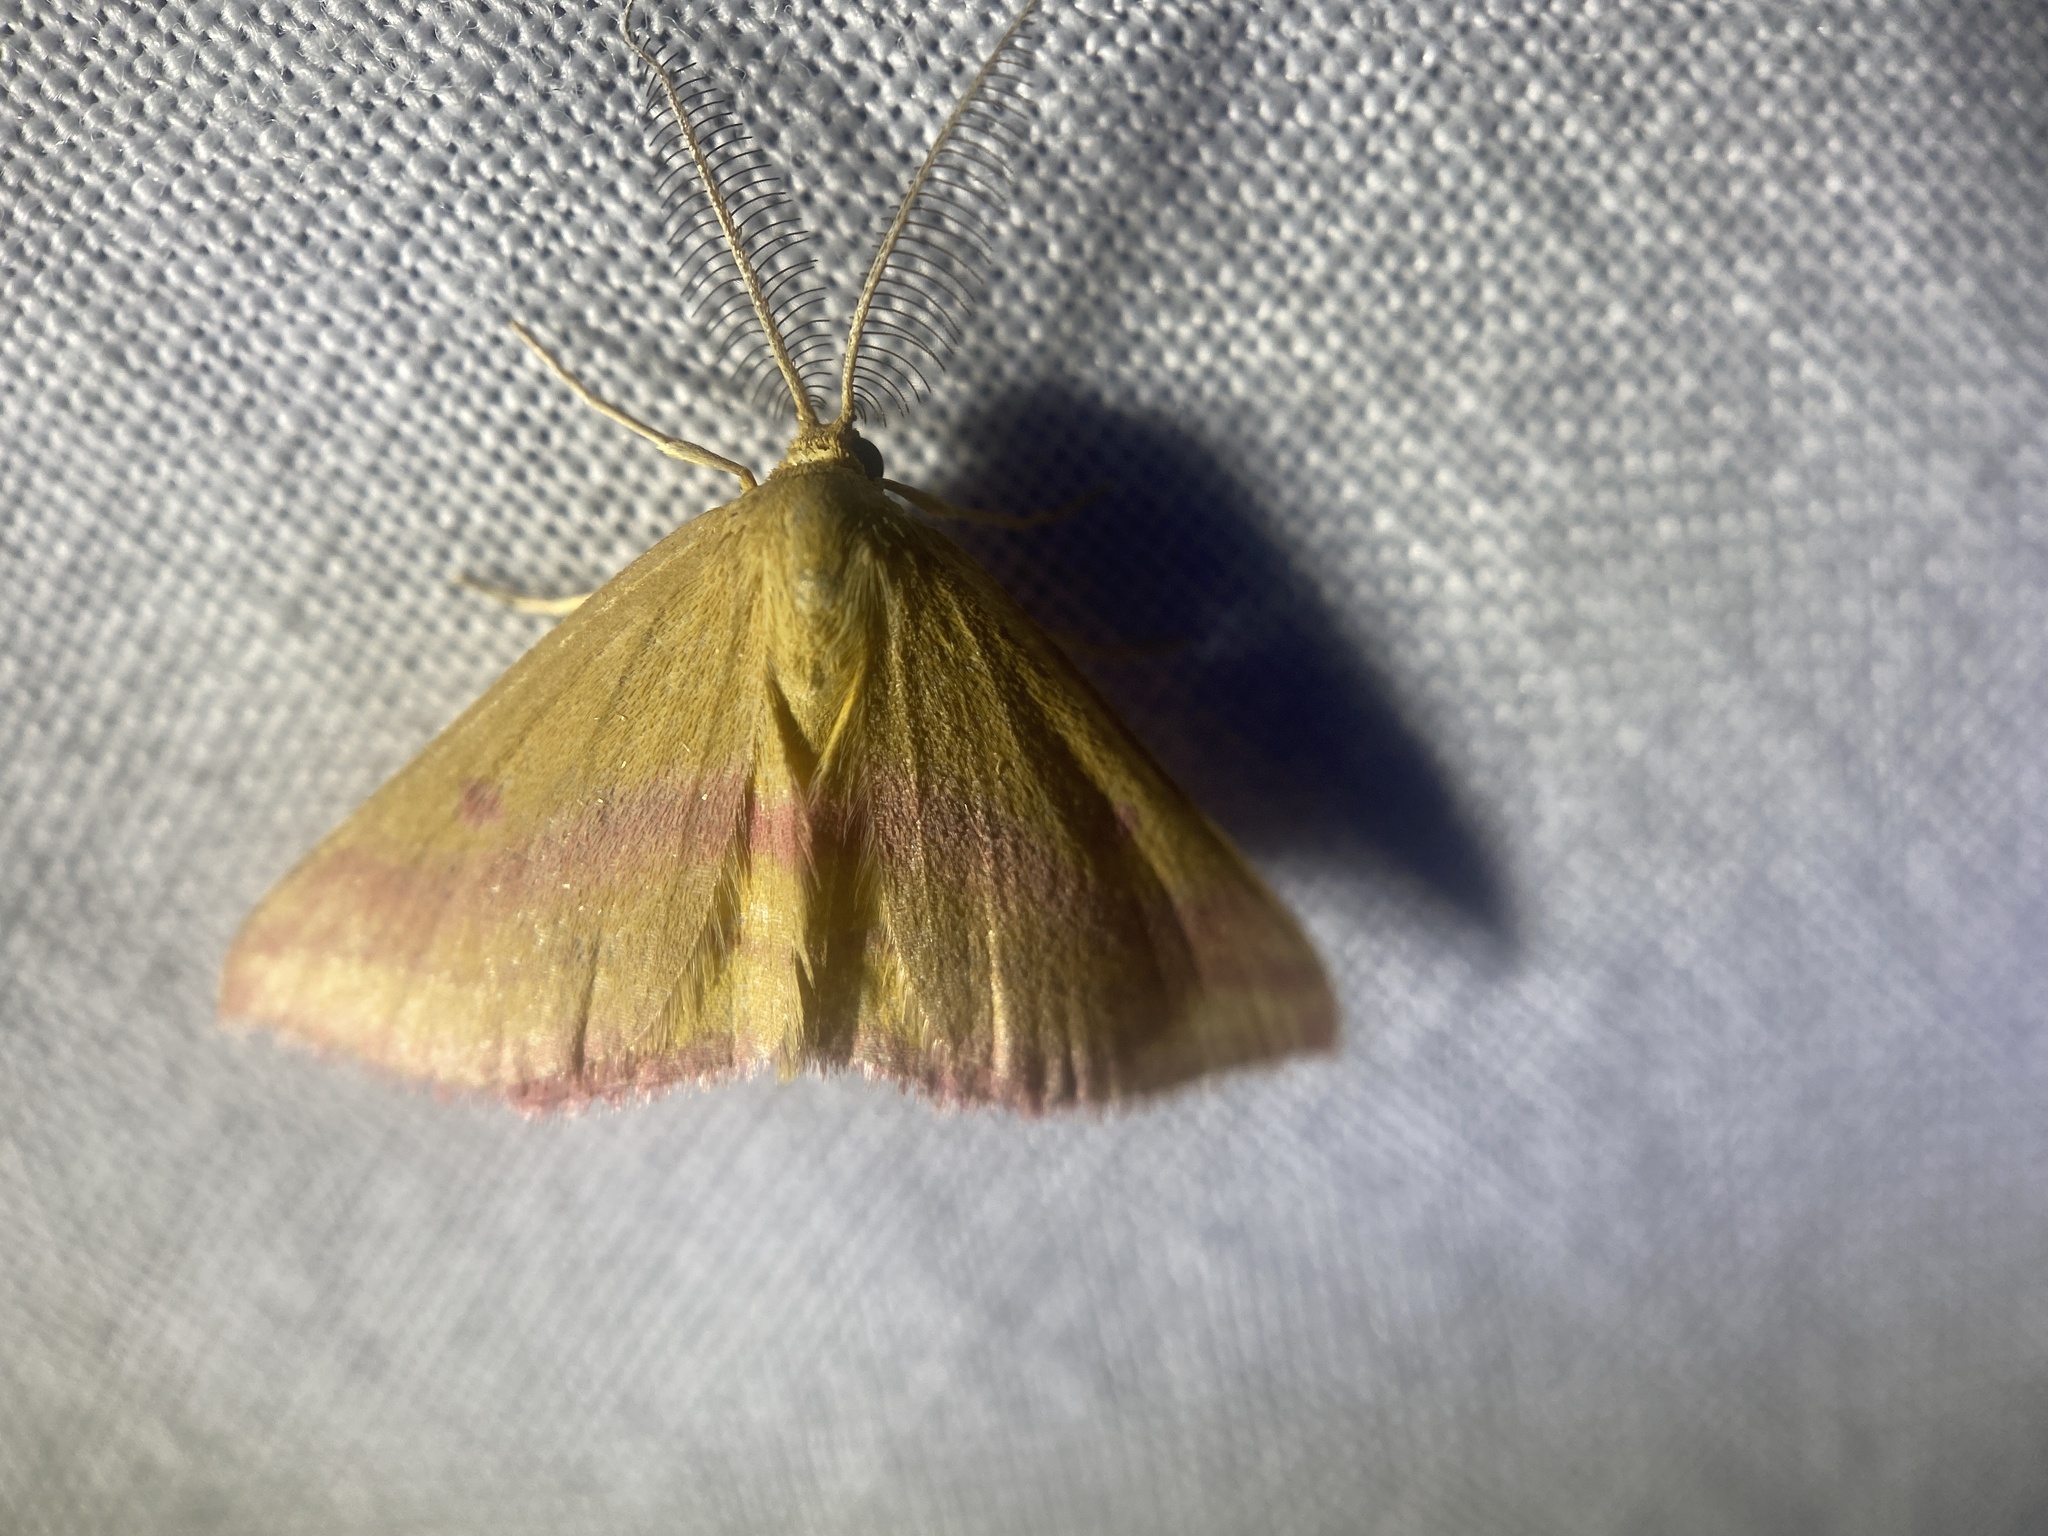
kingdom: Animalia
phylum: Arthropoda
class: Insecta
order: Lepidoptera
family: Geometridae
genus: Haematopis
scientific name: Haematopis grataria
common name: Chickweed geometer
